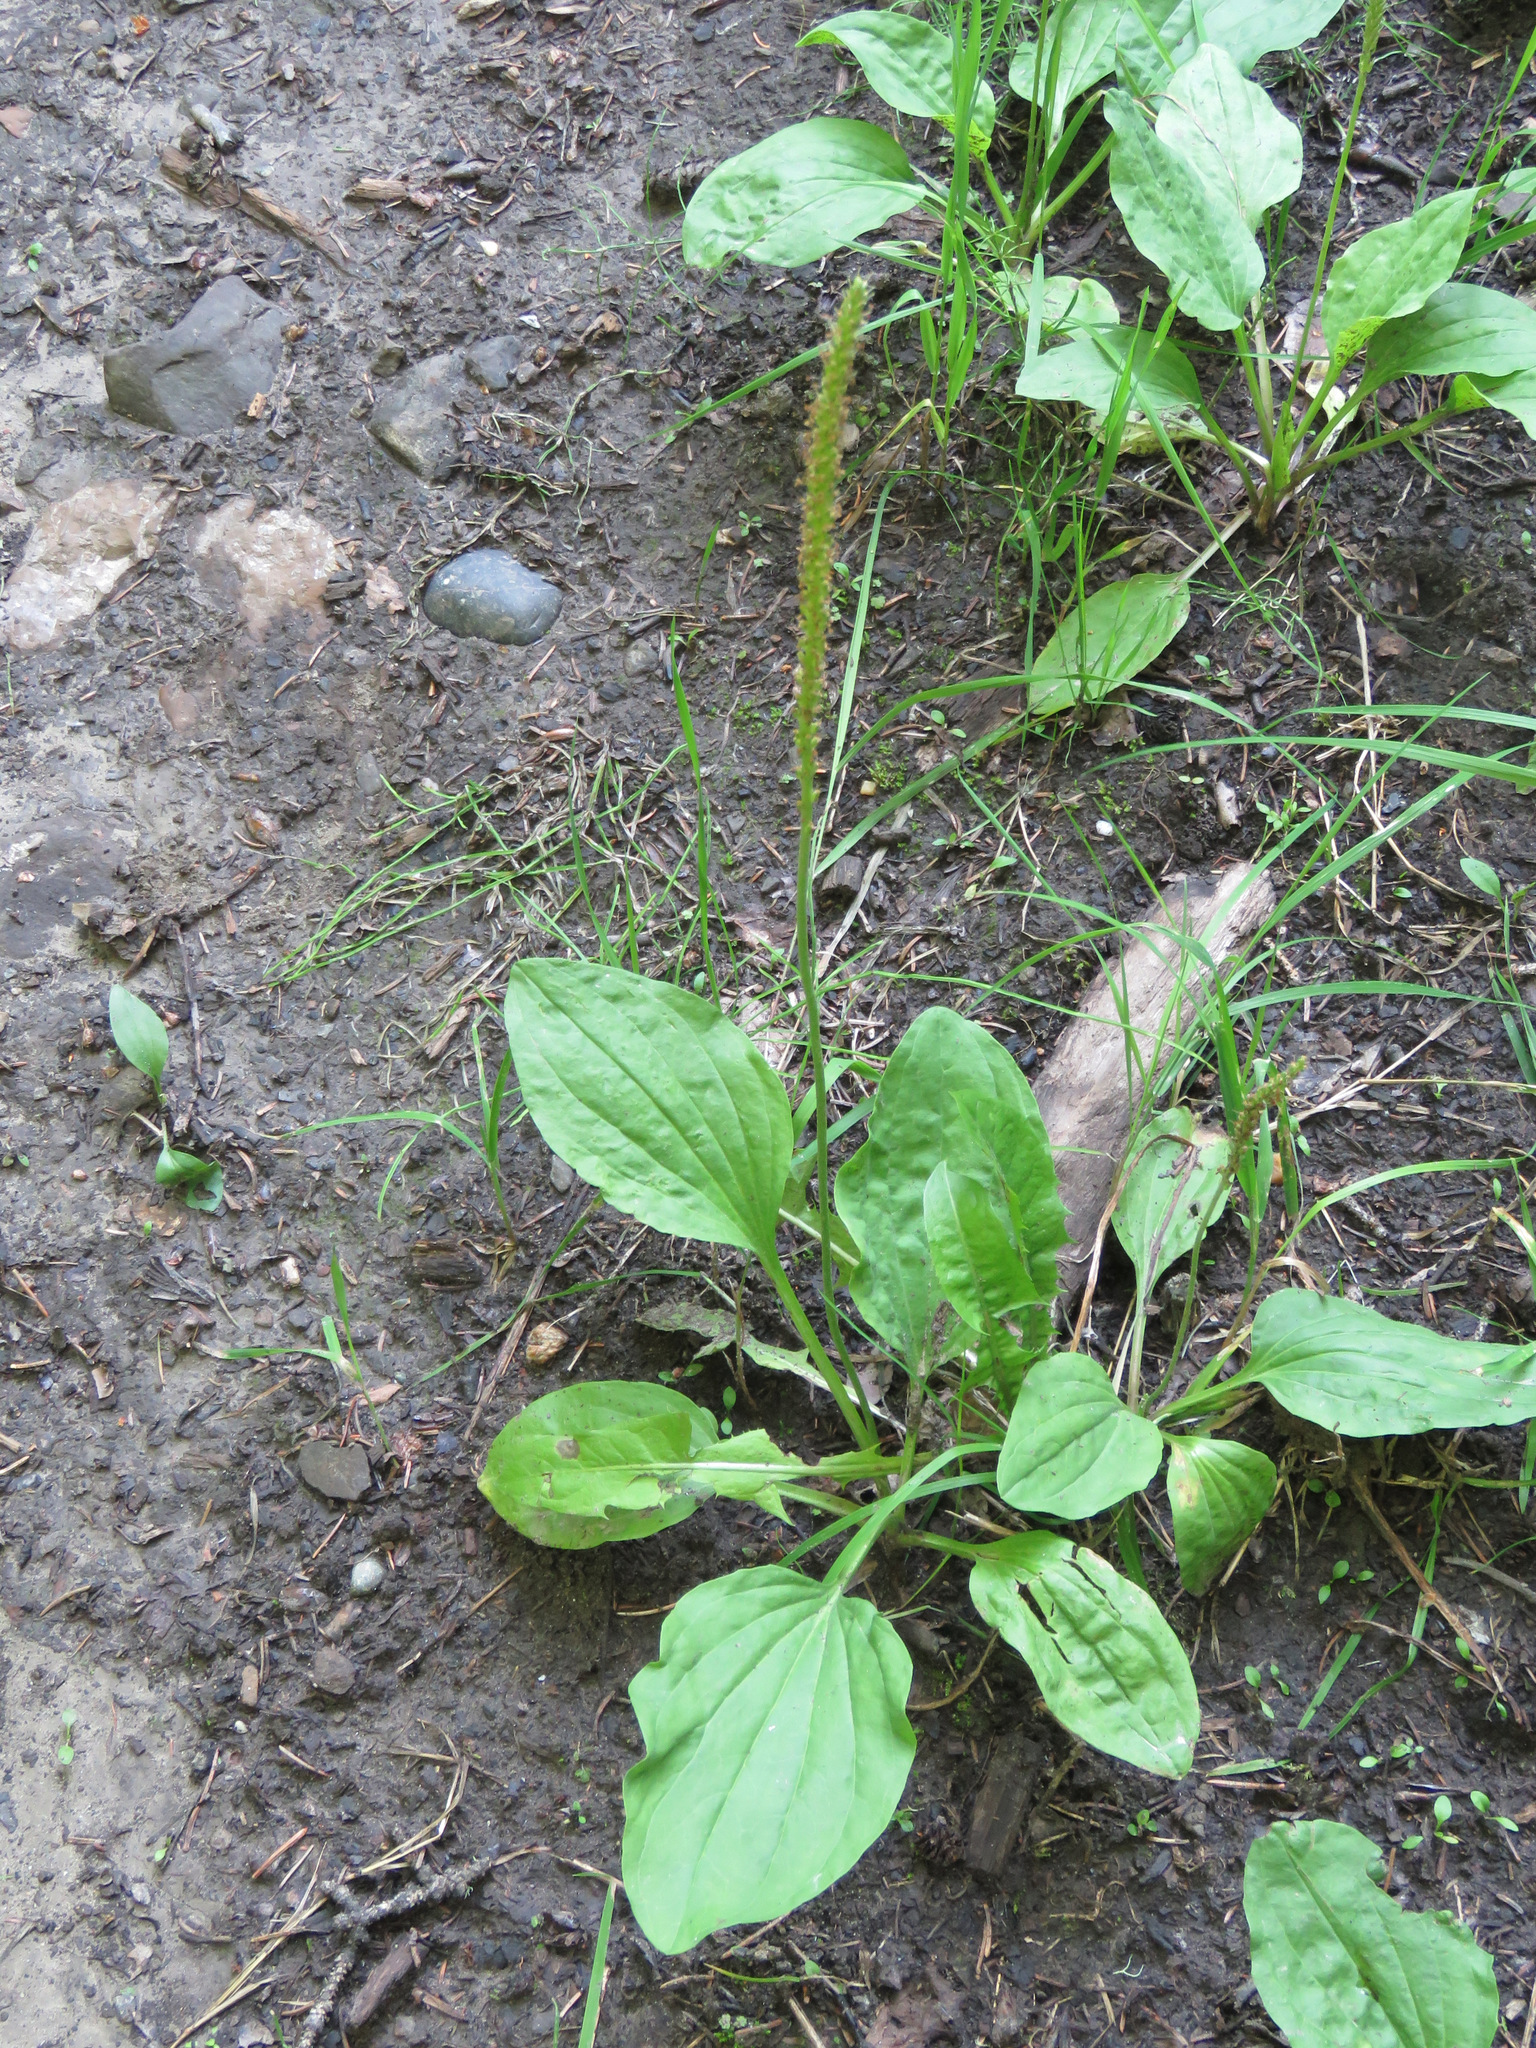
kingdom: Plantae
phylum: Tracheophyta
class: Magnoliopsida
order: Lamiales
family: Plantaginaceae
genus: Plantago
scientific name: Plantago major
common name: Common plantain
